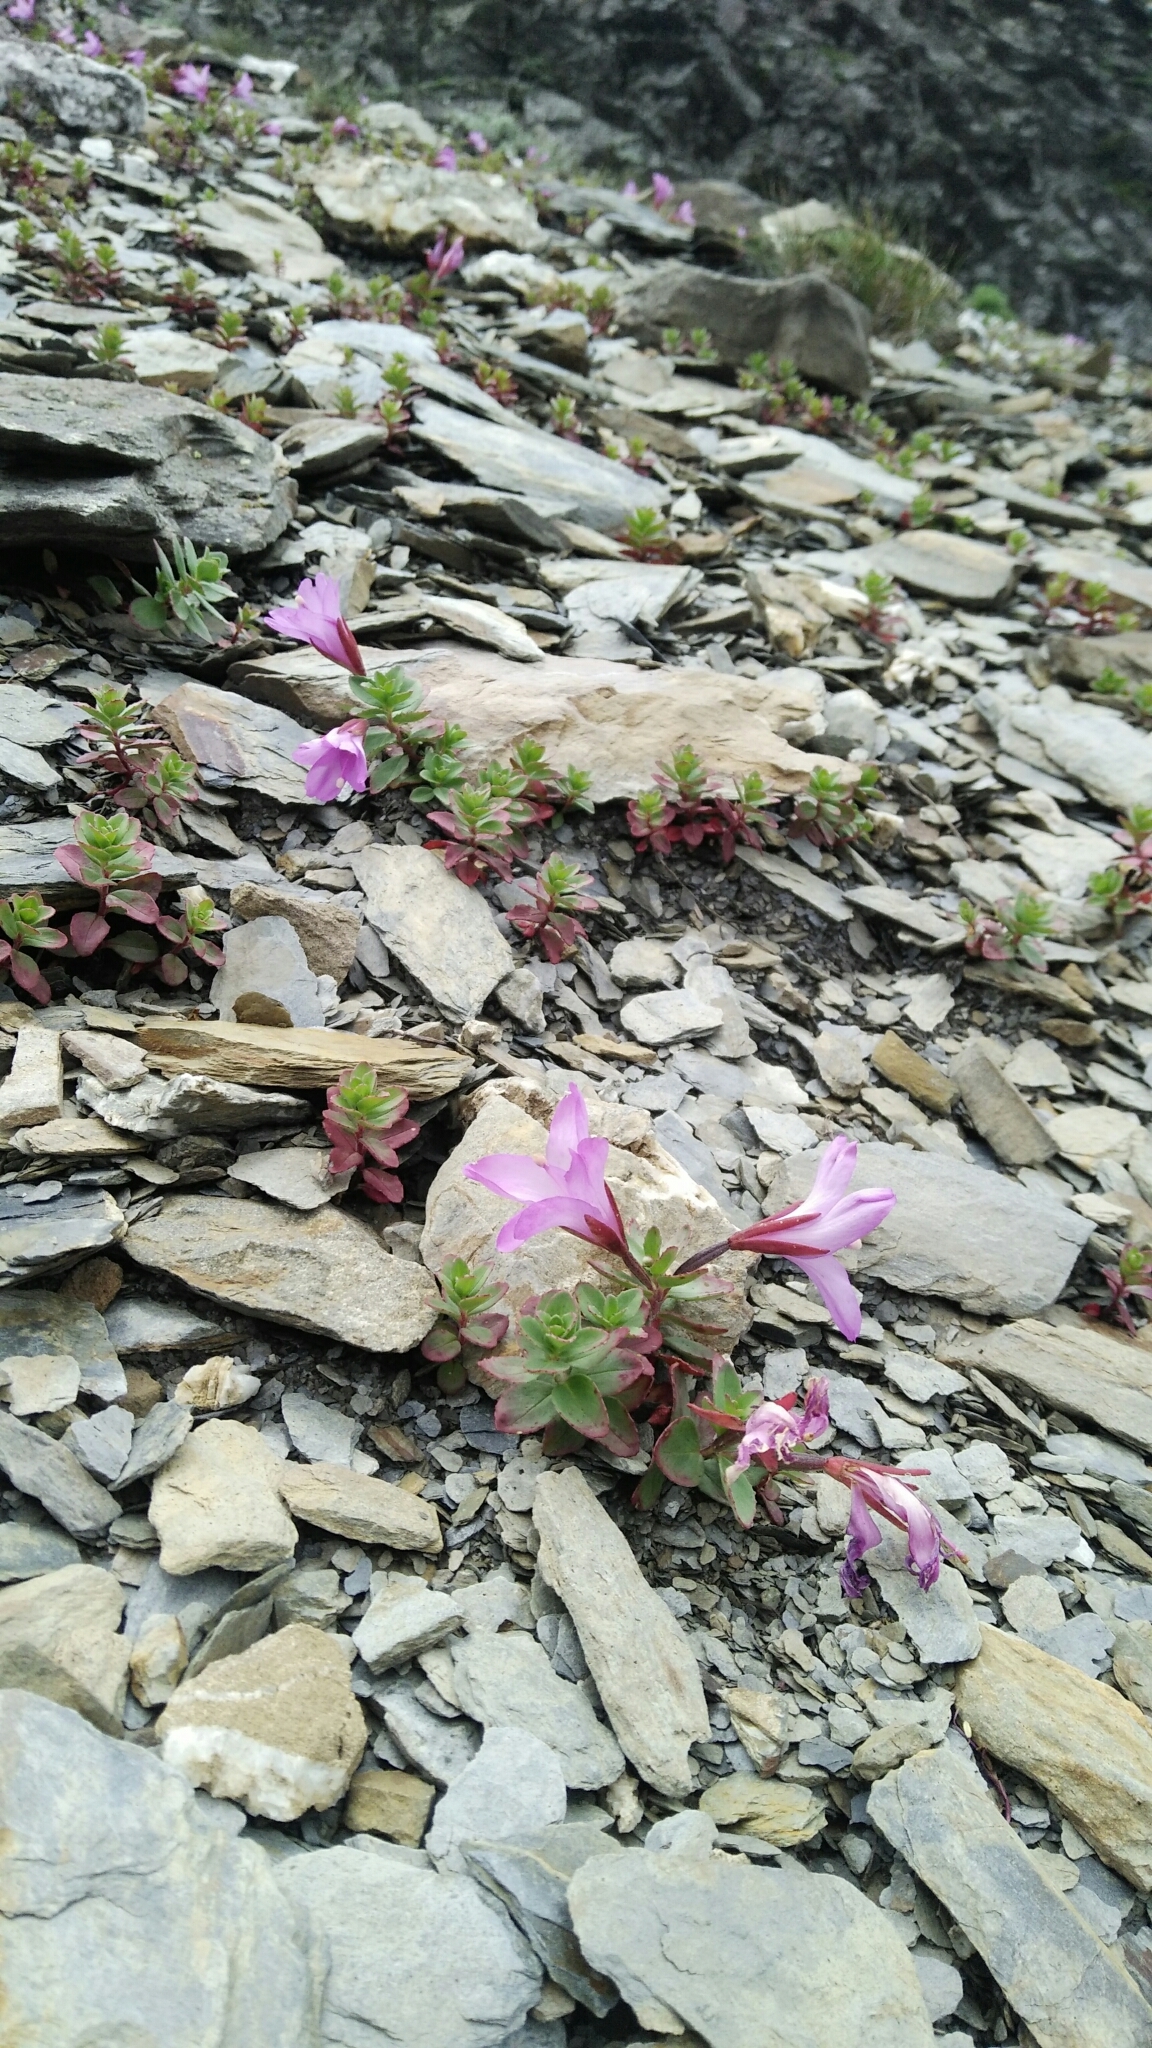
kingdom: Plantae
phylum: Tracheophyta
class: Magnoliopsida
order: Myrtales
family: Onagraceae
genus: Epilobium
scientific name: Epilobium nankotaizanense
